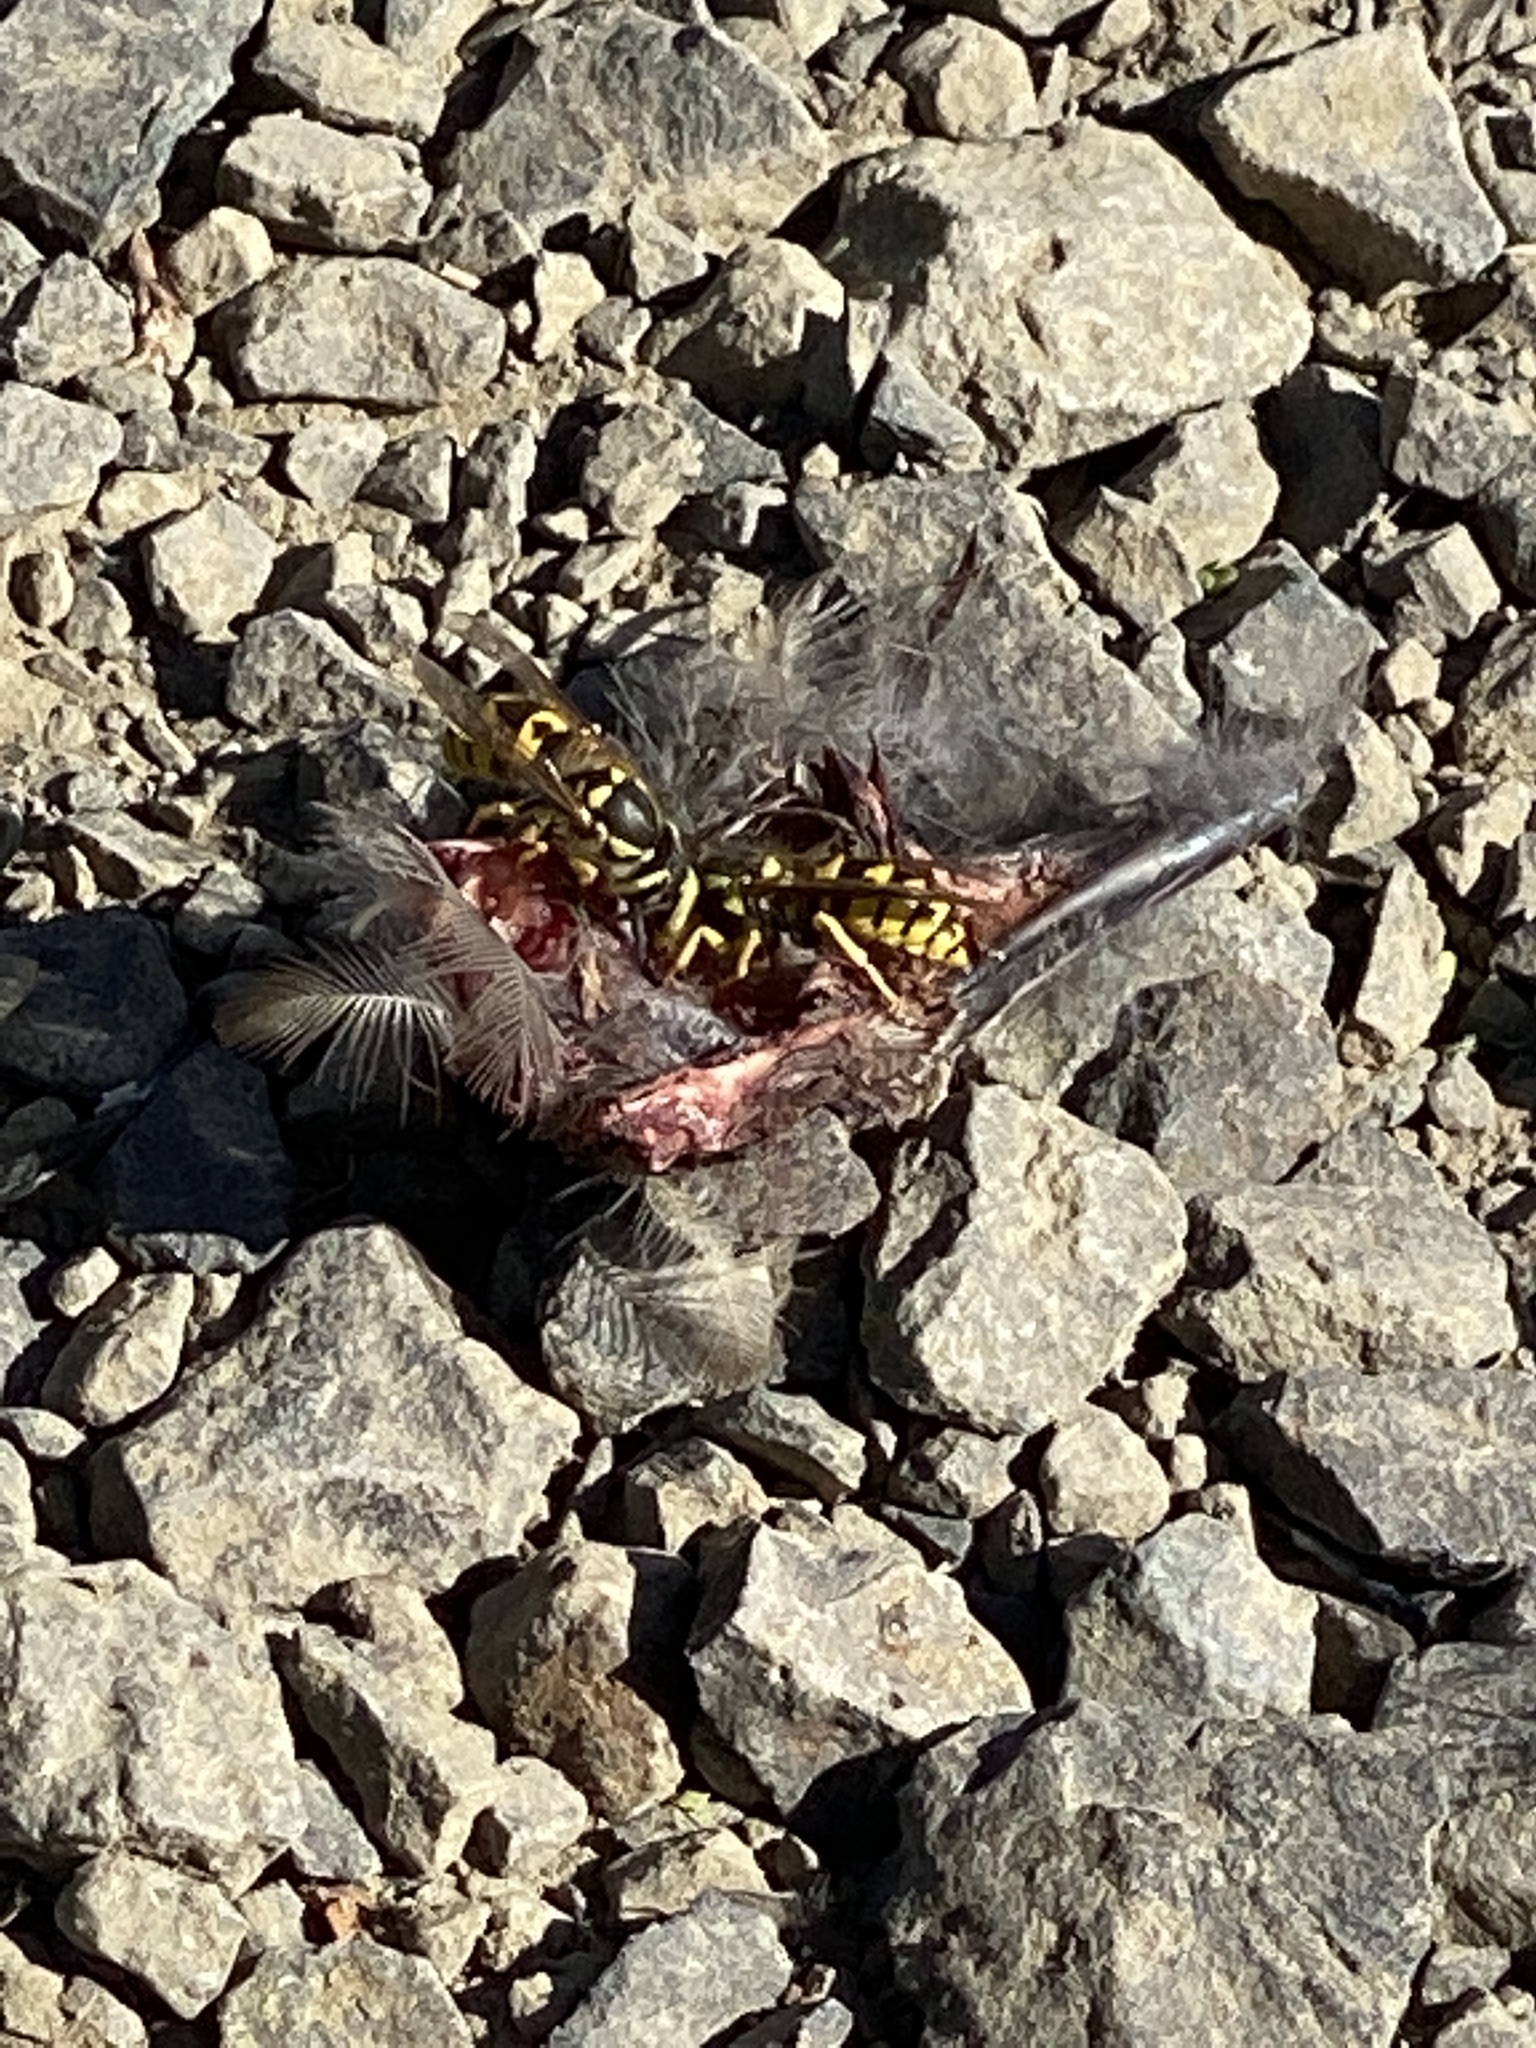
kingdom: Animalia
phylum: Arthropoda
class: Insecta
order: Hymenoptera
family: Vespidae
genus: Vespula
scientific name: Vespula pensylvanica
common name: Western yellowjacket
